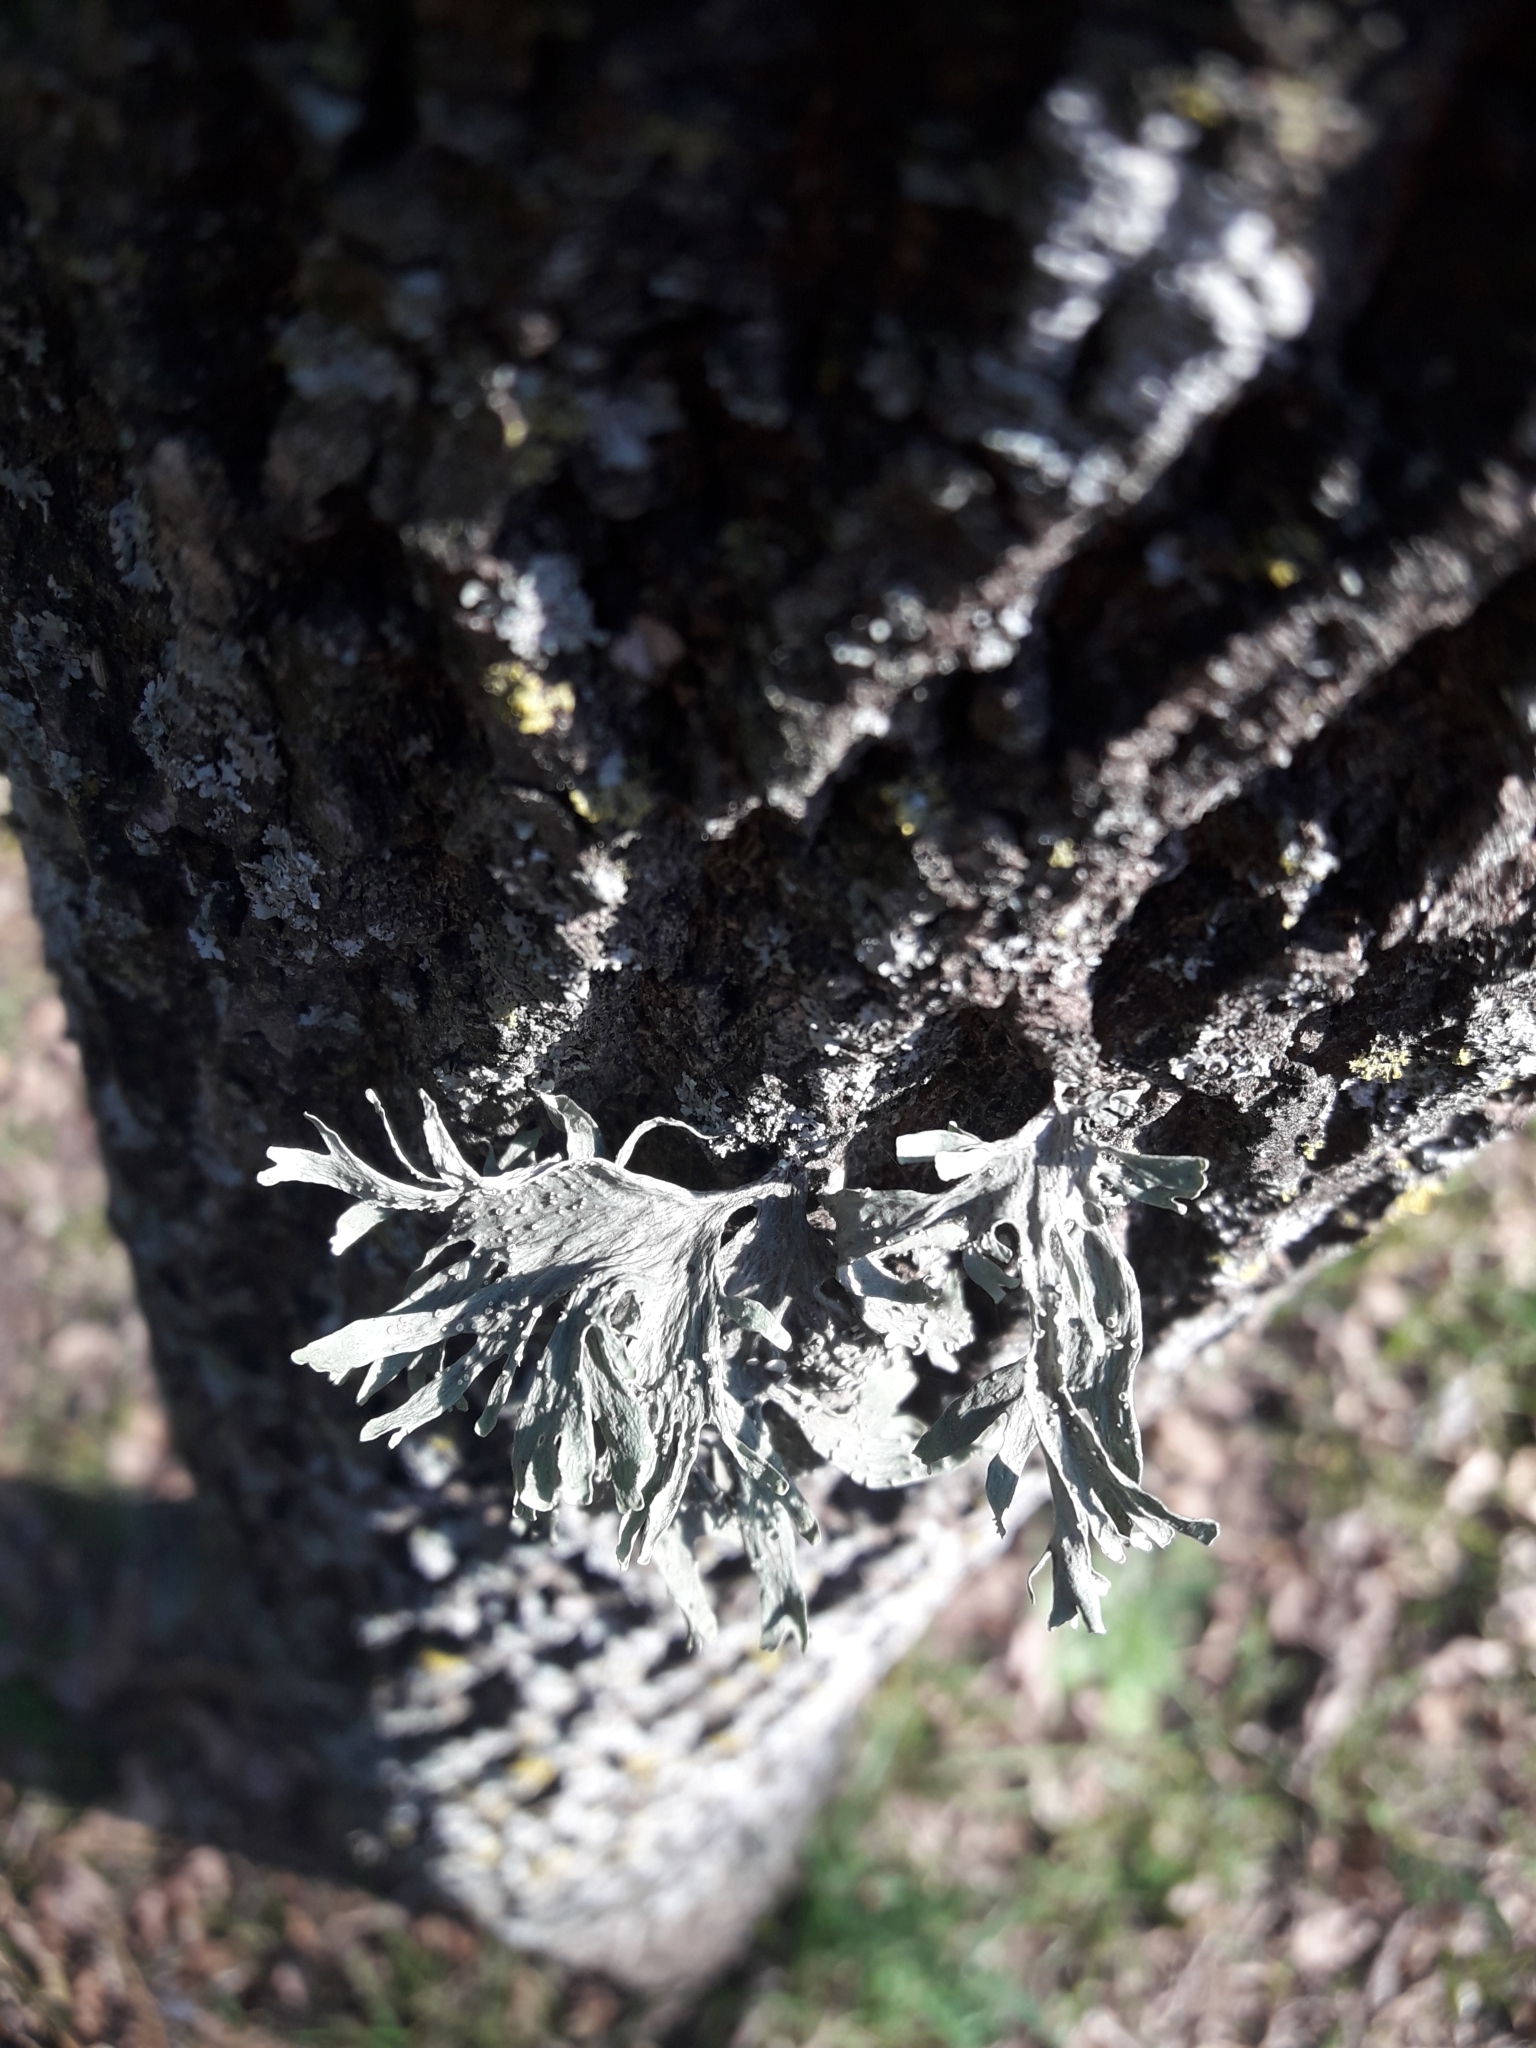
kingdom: Fungi
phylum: Ascomycota
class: Lecanoromycetes
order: Lecanorales
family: Ramalinaceae
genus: Ramalina
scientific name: Ramalina celastri
